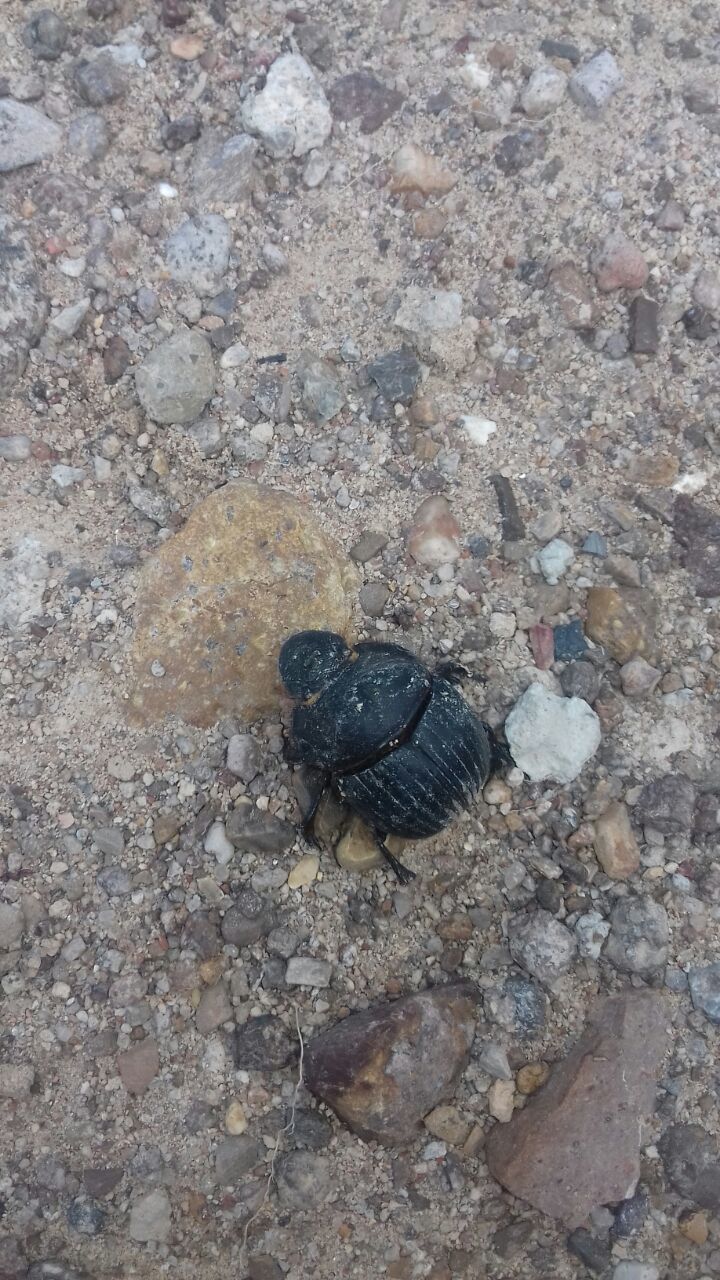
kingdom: Animalia
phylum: Arthropoda
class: Insecta
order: Coleoptera
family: Scarabaeidae
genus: Dichotomius
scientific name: Dichotomius colonicus
